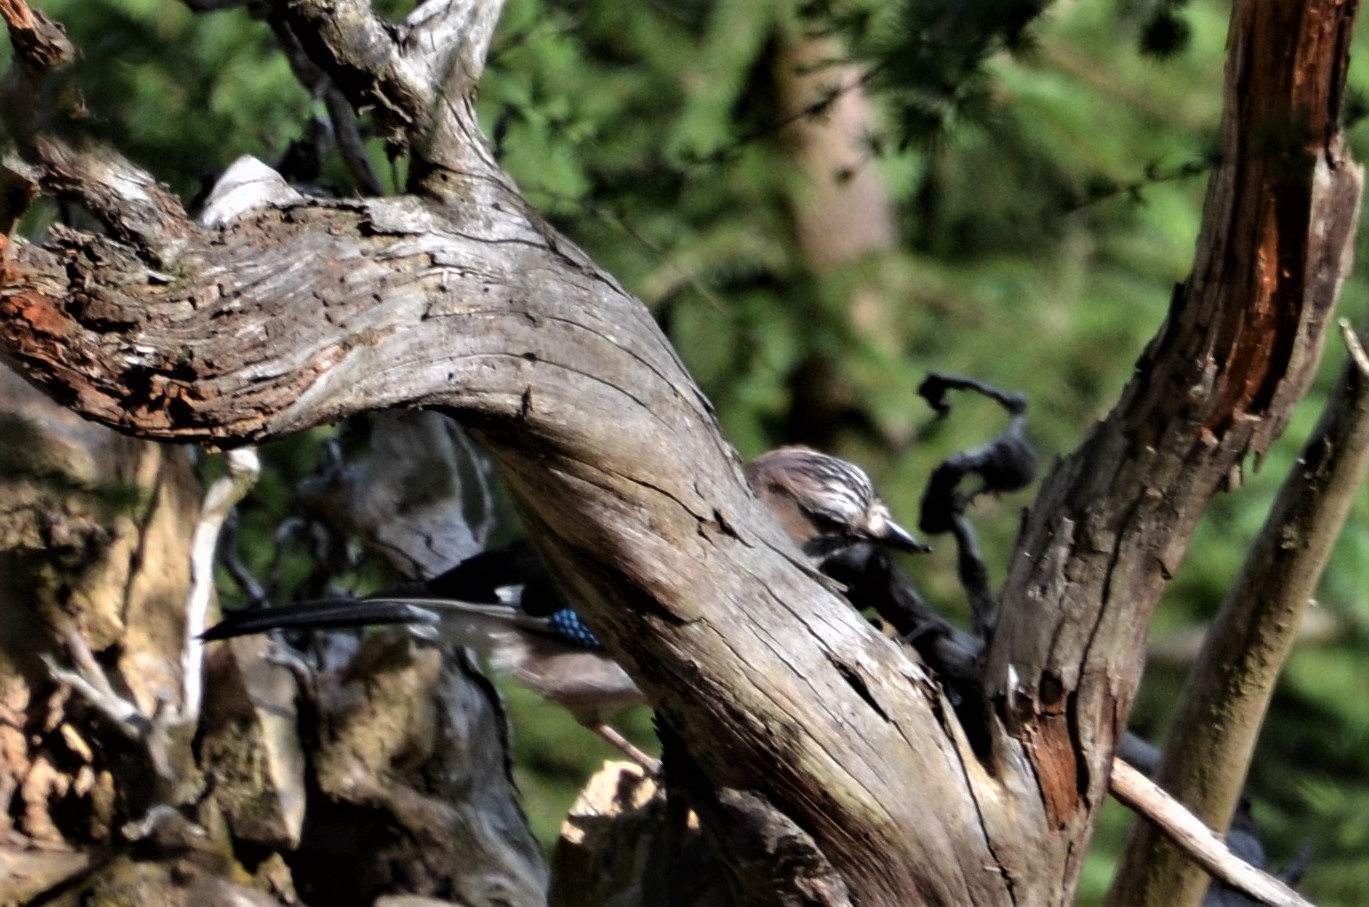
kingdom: Animalia
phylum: Chordata
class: Aves
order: Passeriformes
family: Corvidae
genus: Garrulus
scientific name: Garrulus glandarius
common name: Eurasian jay
